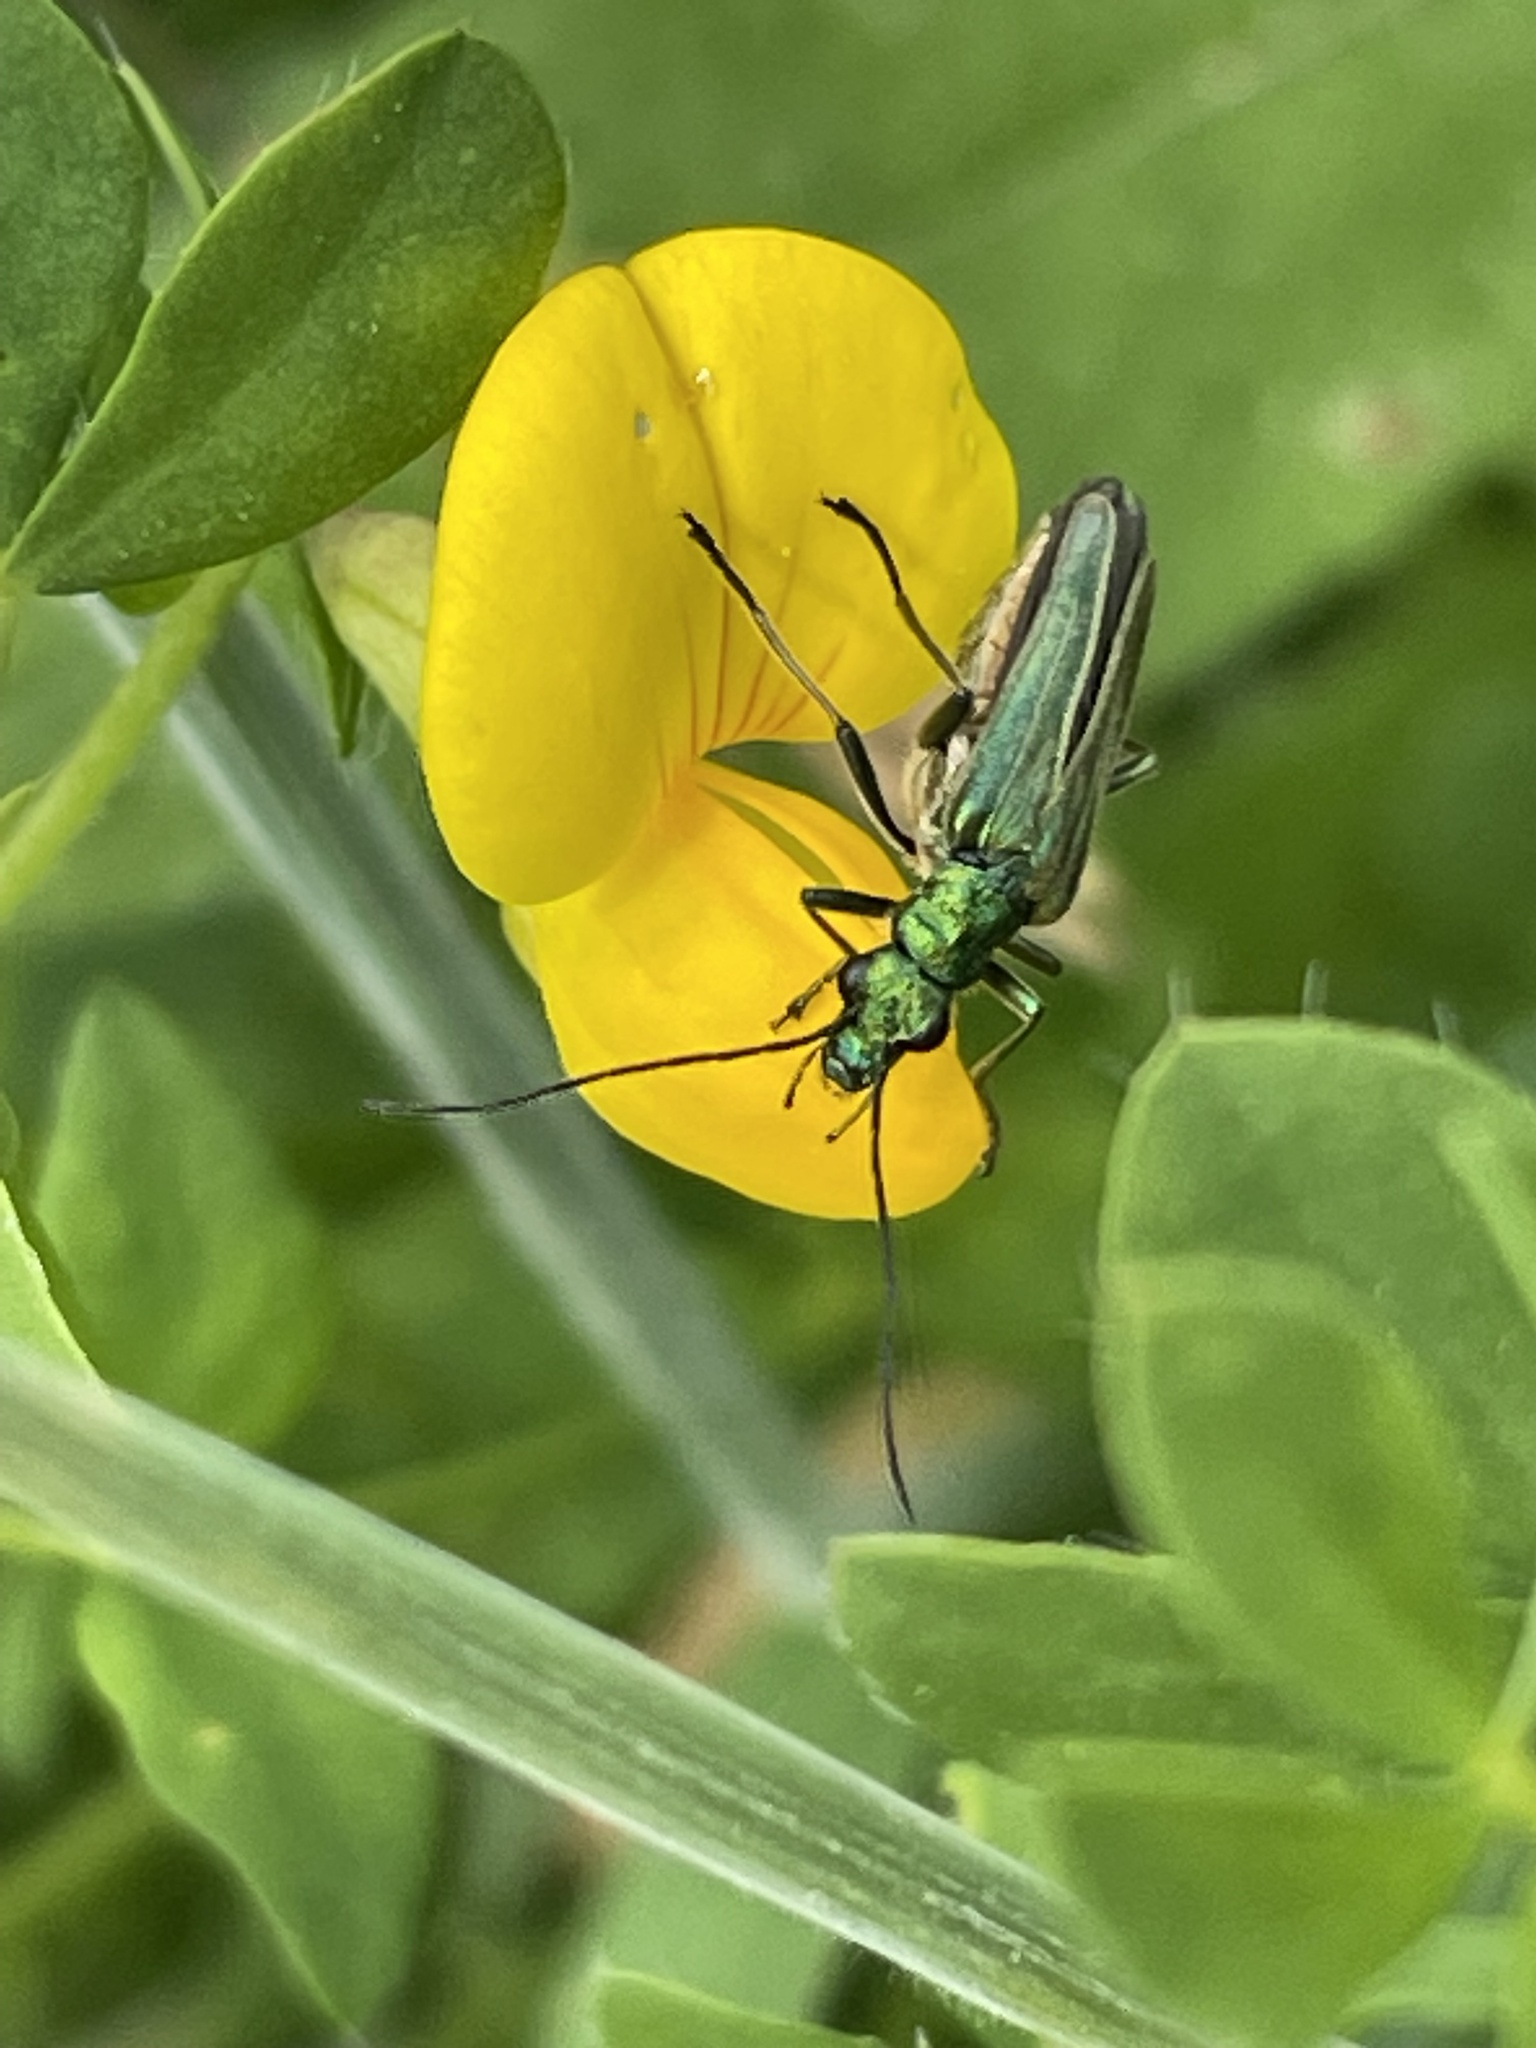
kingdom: Animalia
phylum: Arthropoda
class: Insecta
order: Coleoptera
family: Oedemeridae
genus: Oedemera
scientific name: Oedemera nobilis
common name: Swollen-thighed beetle
